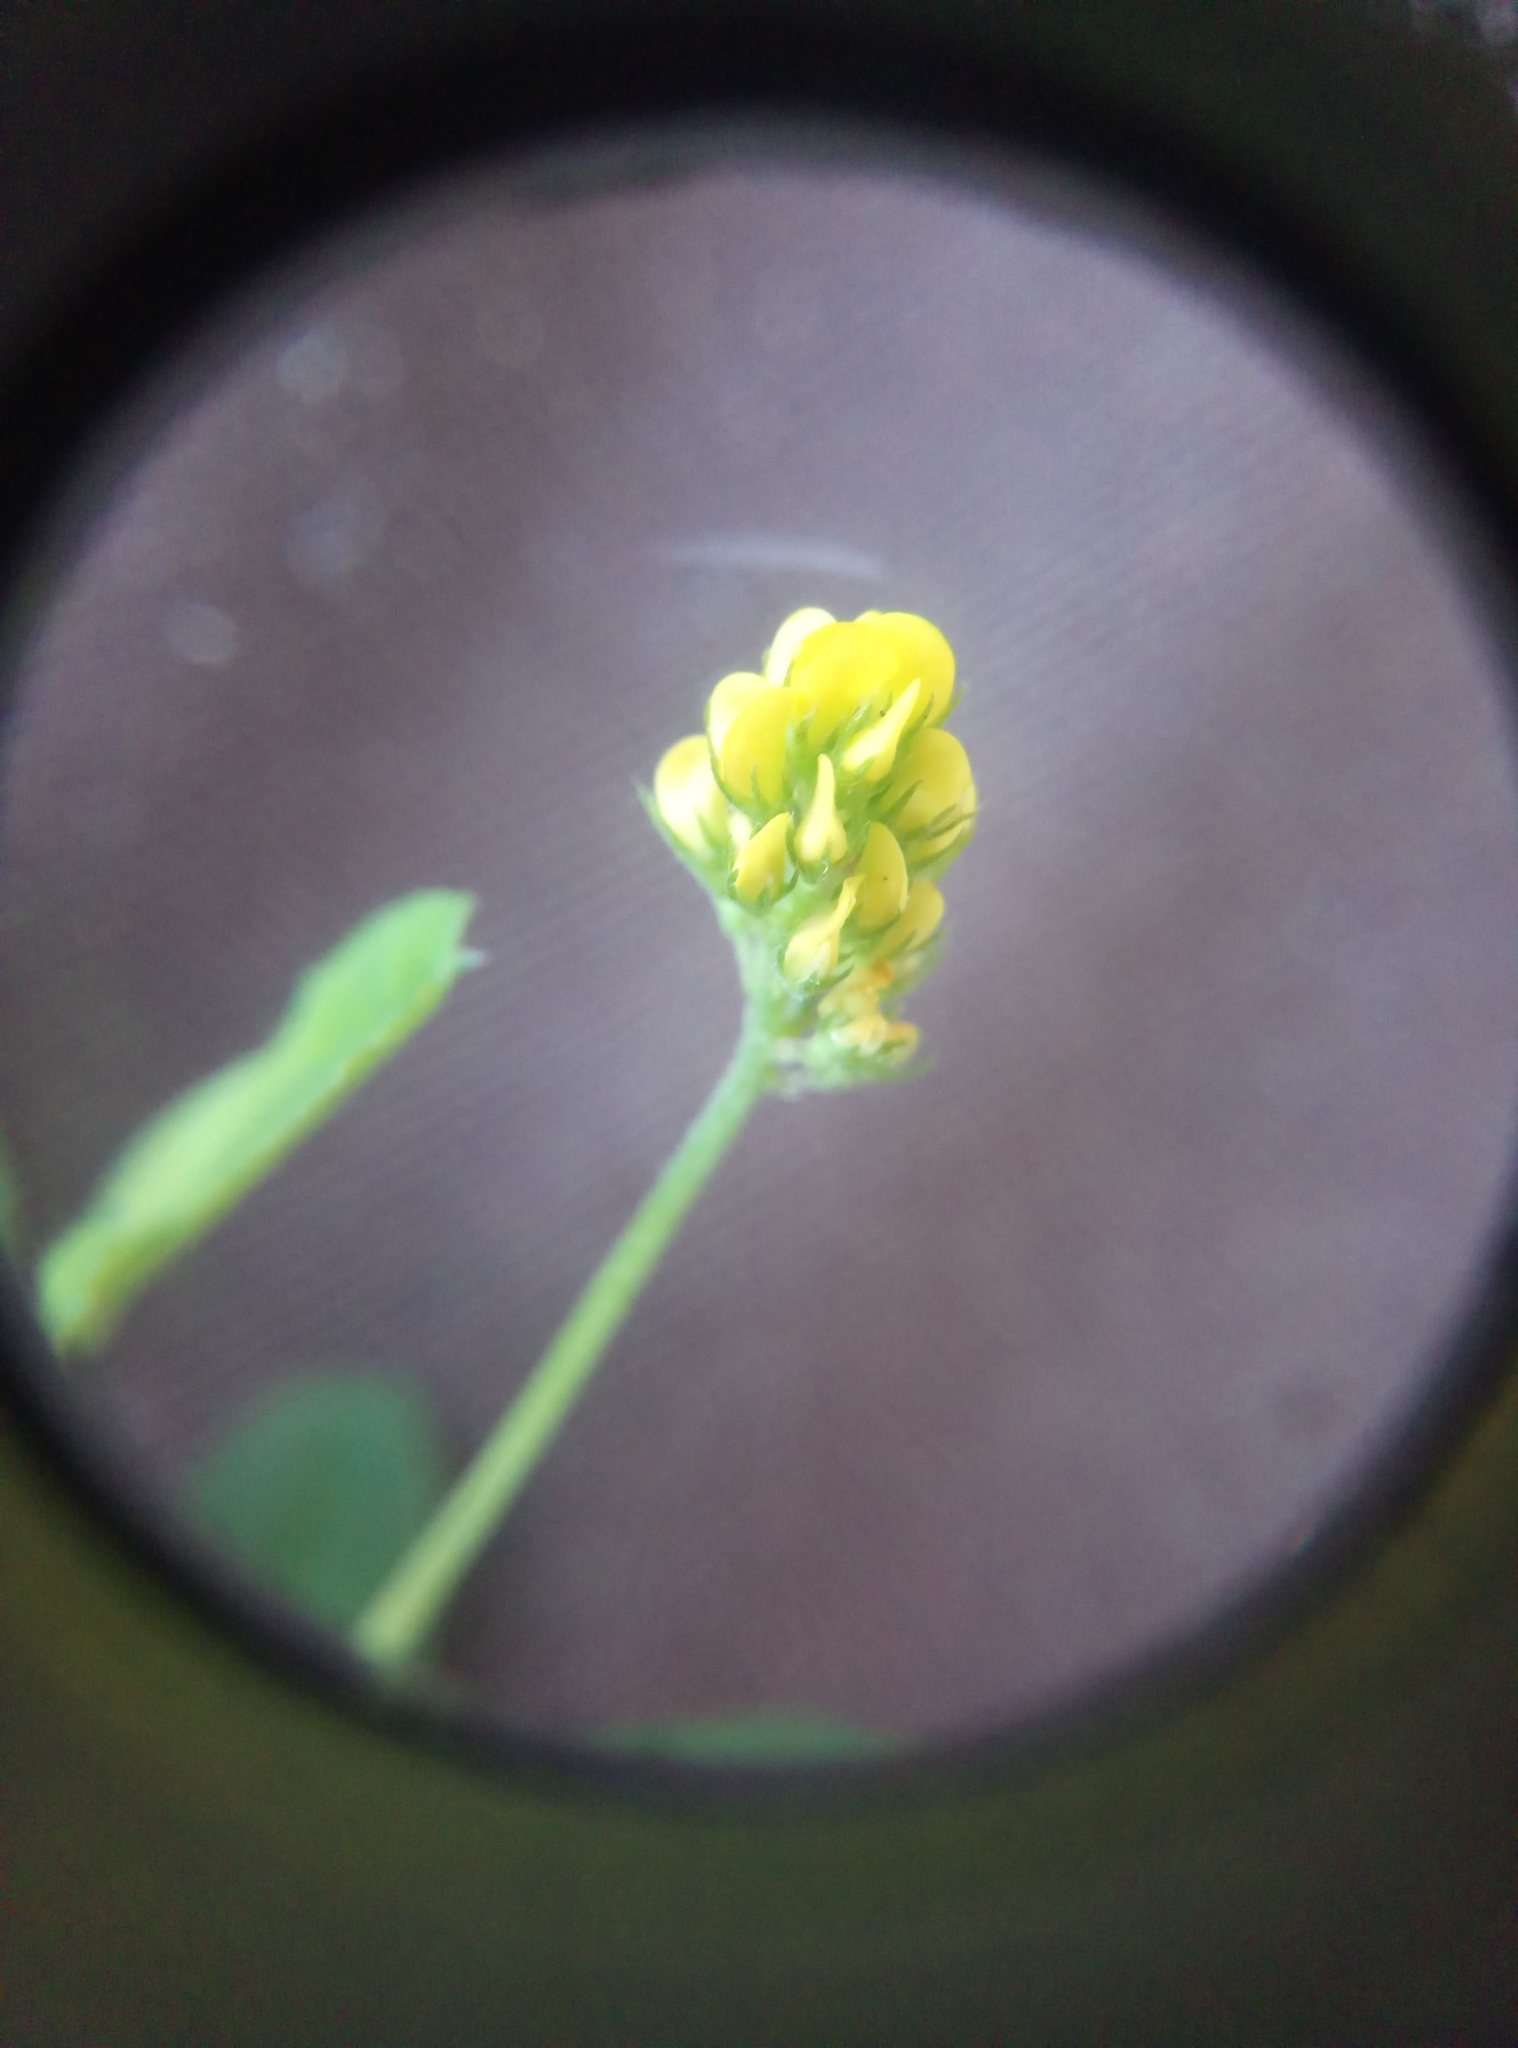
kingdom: Plantae
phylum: Tracheophyta
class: Magnoliopsida
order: Fabales
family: Fabaceae
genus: Medicago
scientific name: Medicago lupulina
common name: Black medick
